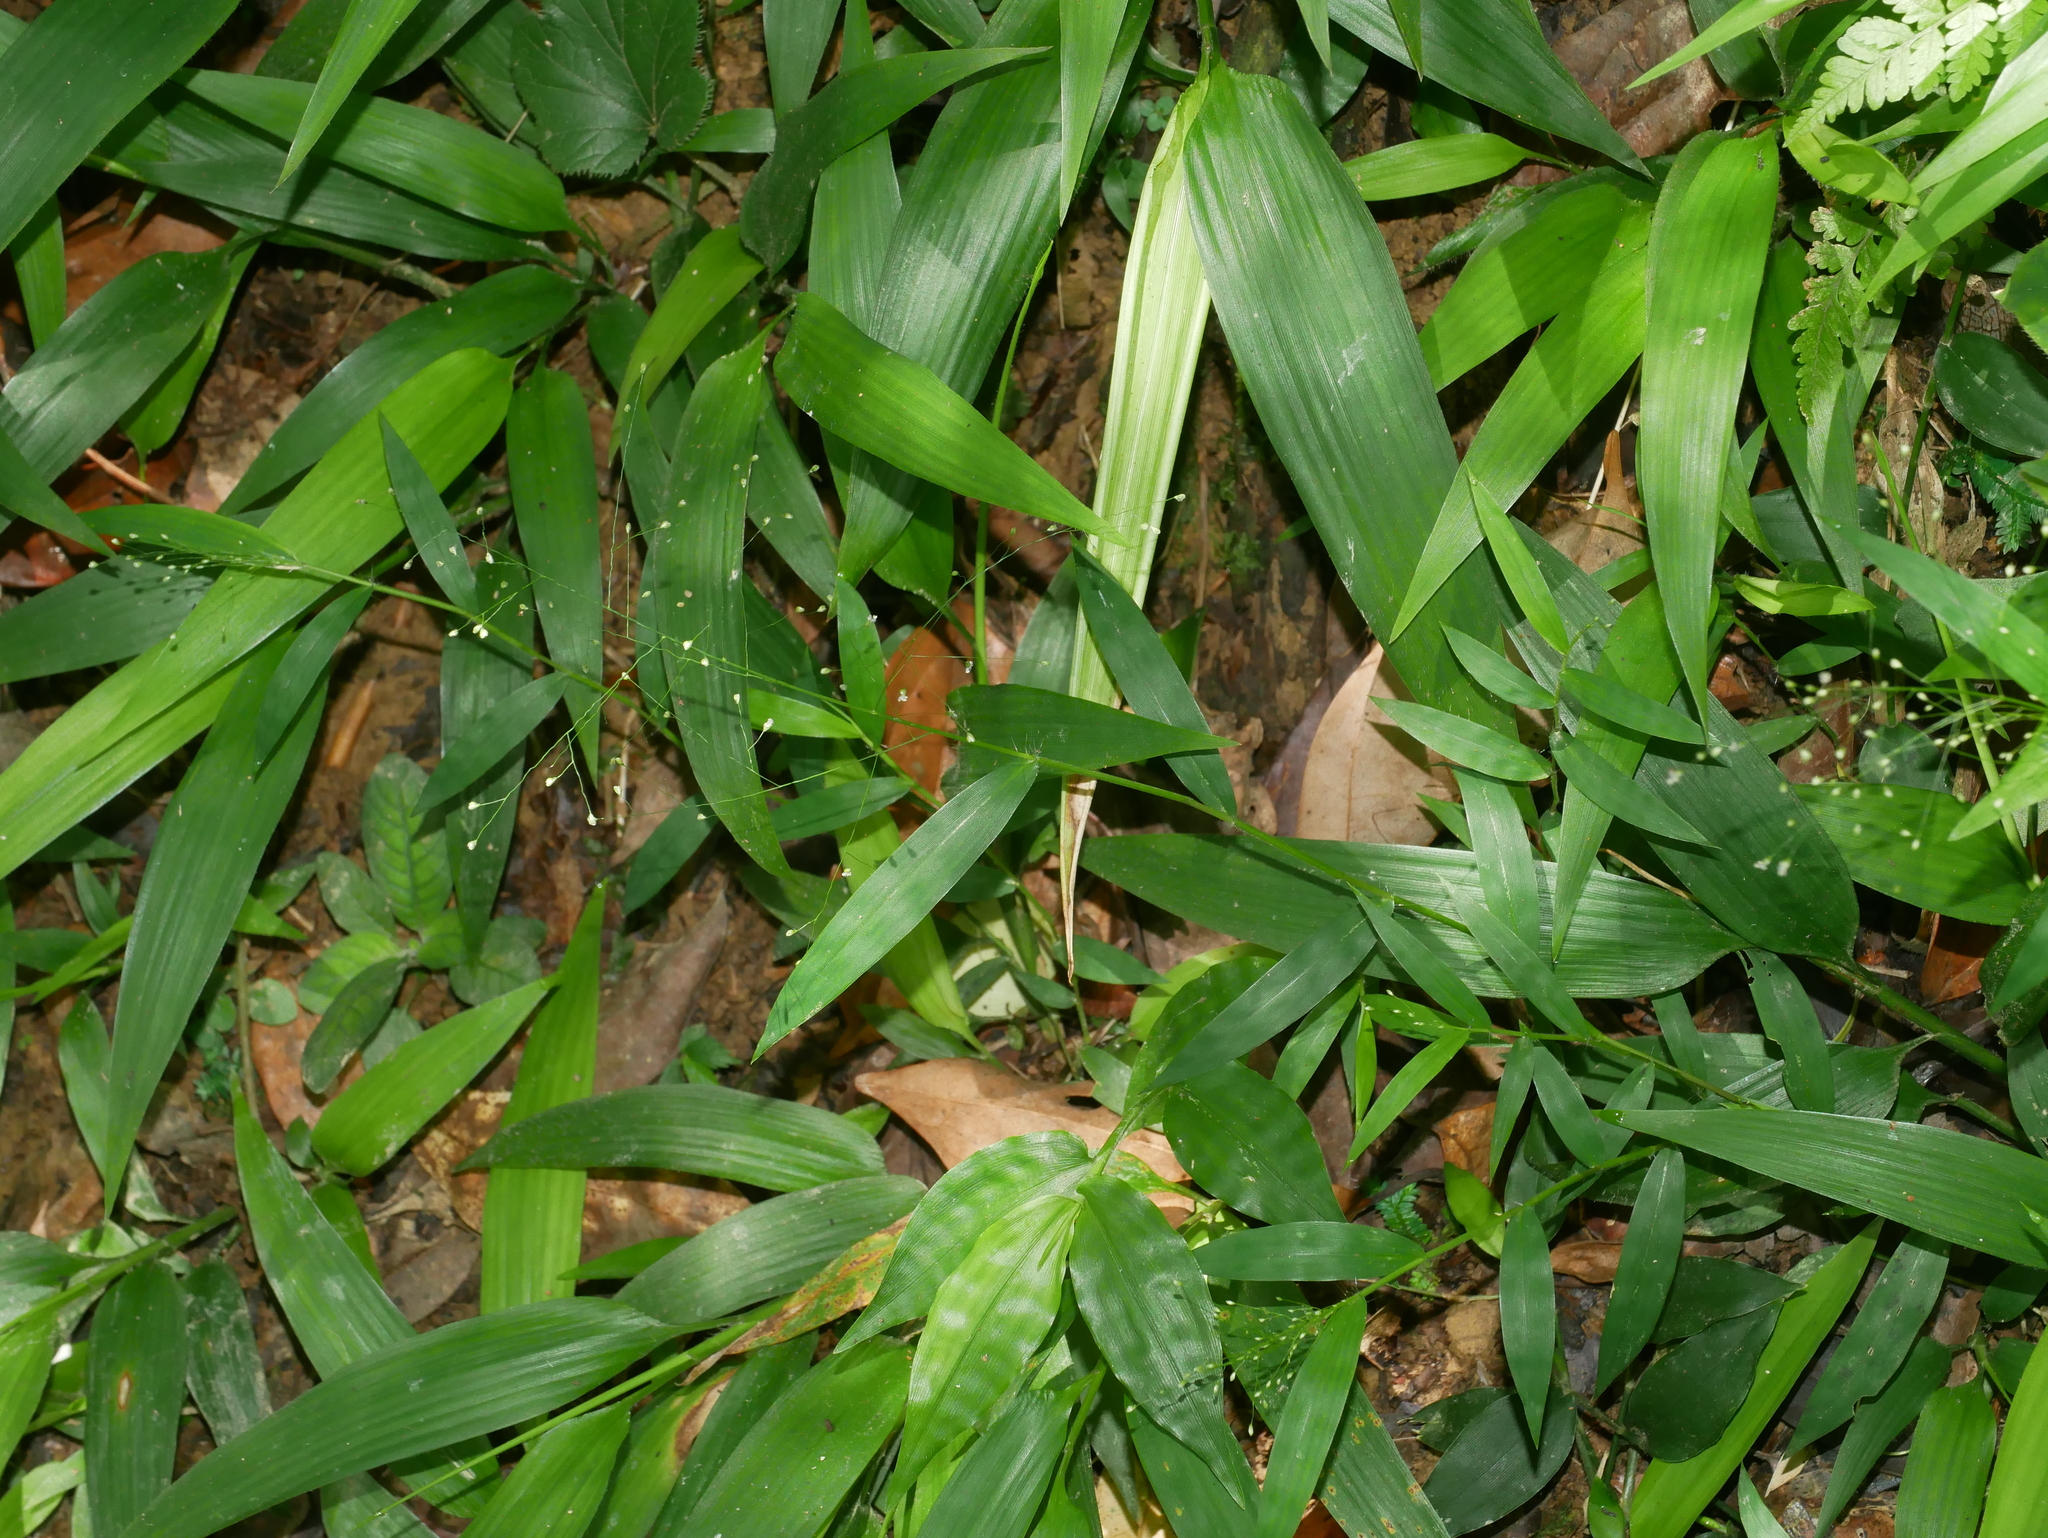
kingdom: Plantae
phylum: Tracheophyta
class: Liliopsida
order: Poales
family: Poaceae
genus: Cyrtococcum
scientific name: Cyrtococcum patens
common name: Broad-leaved bowgrass
